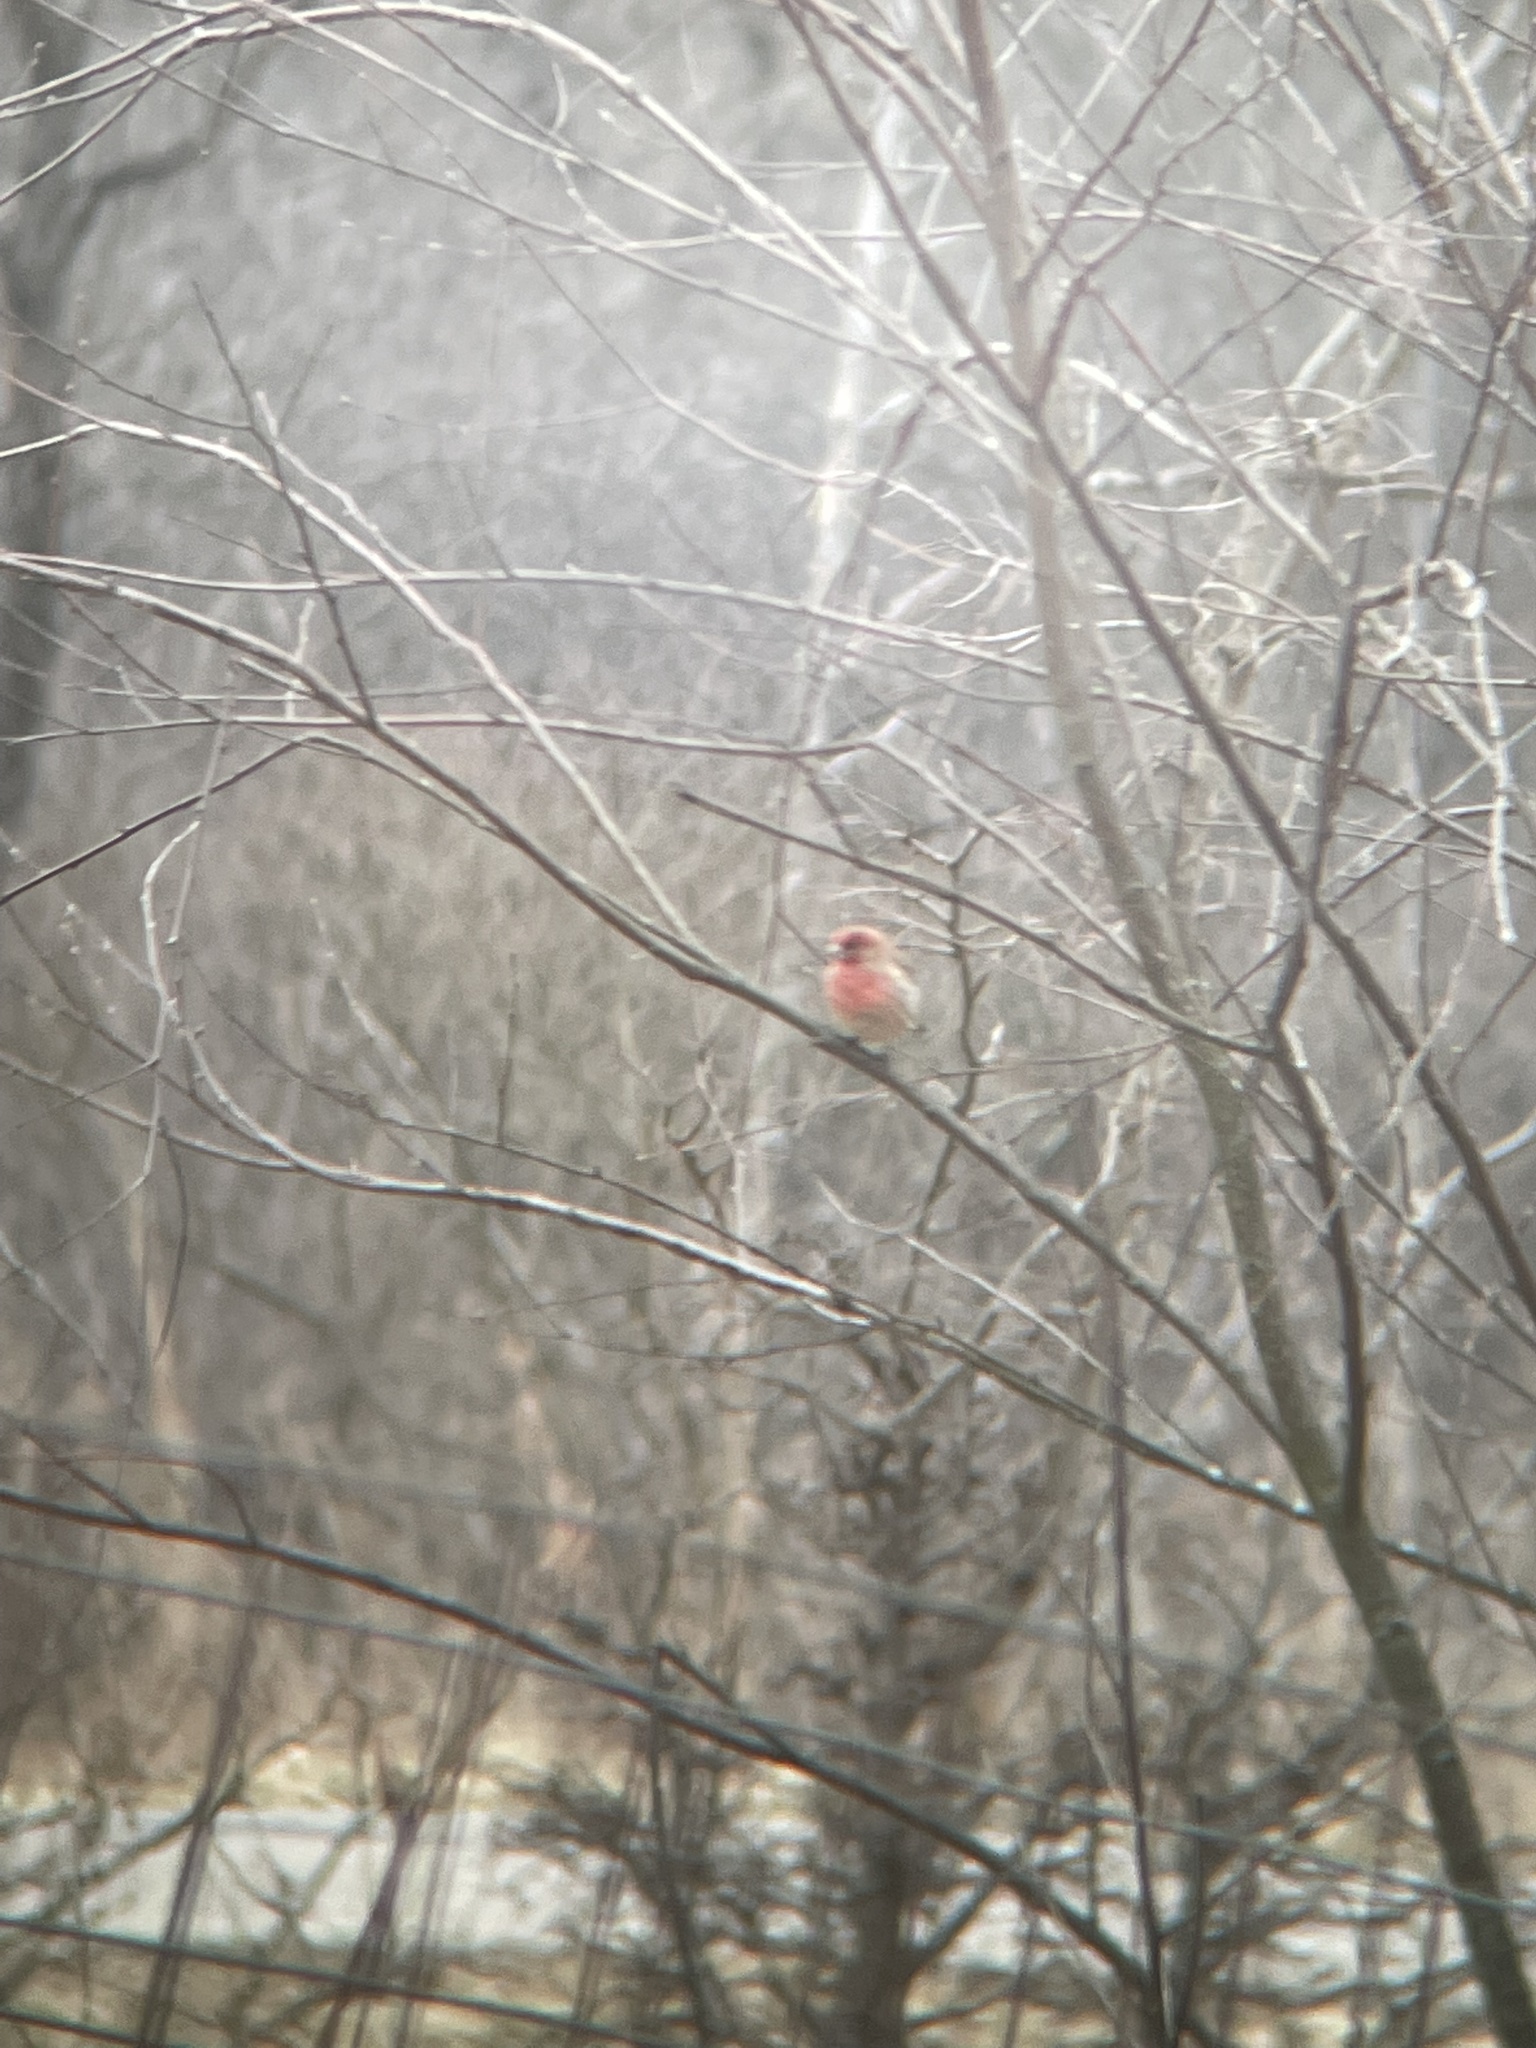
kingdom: Animalia
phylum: Chordata
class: Aves
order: Passeriformes
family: Fringillidae
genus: Haemorhous
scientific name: Haemorhous mexicanus
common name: House finch
